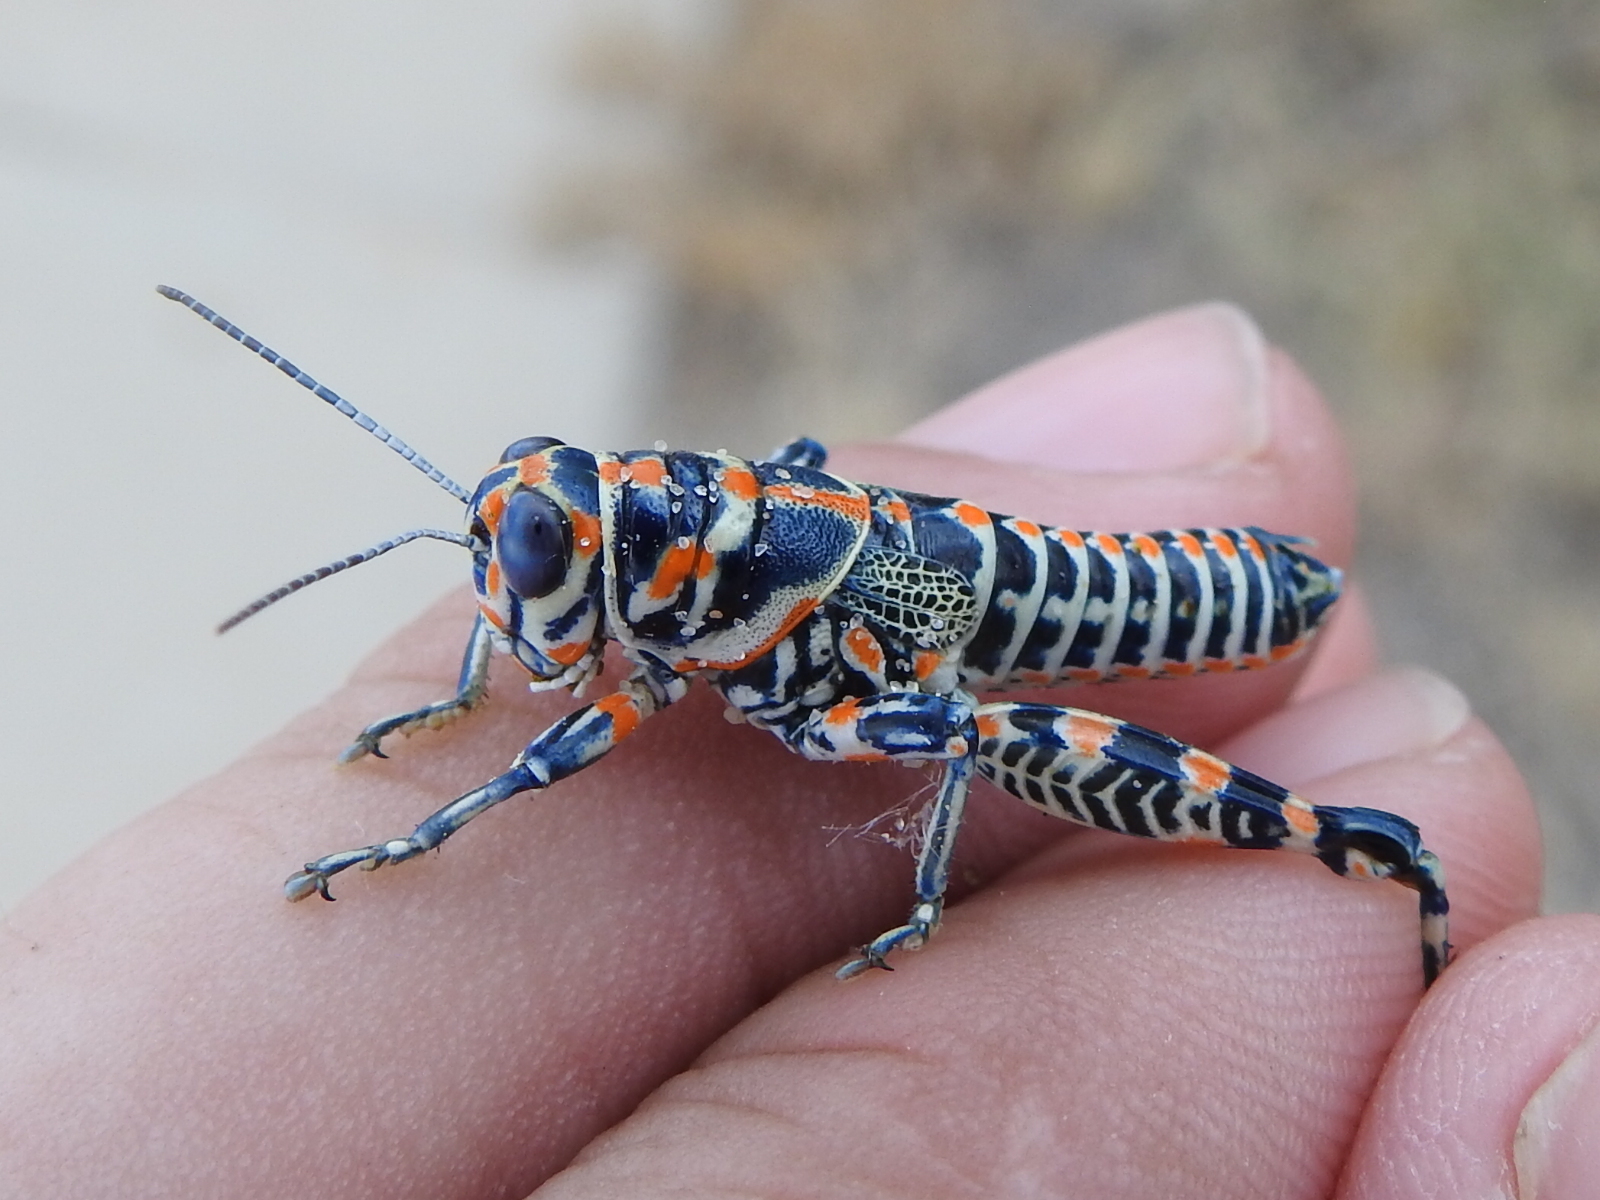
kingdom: Animalia
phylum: Arthropoda
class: Insecta
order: Orthoptera
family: Acrididae
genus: Dactylotum
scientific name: Dactylotum bicolor
